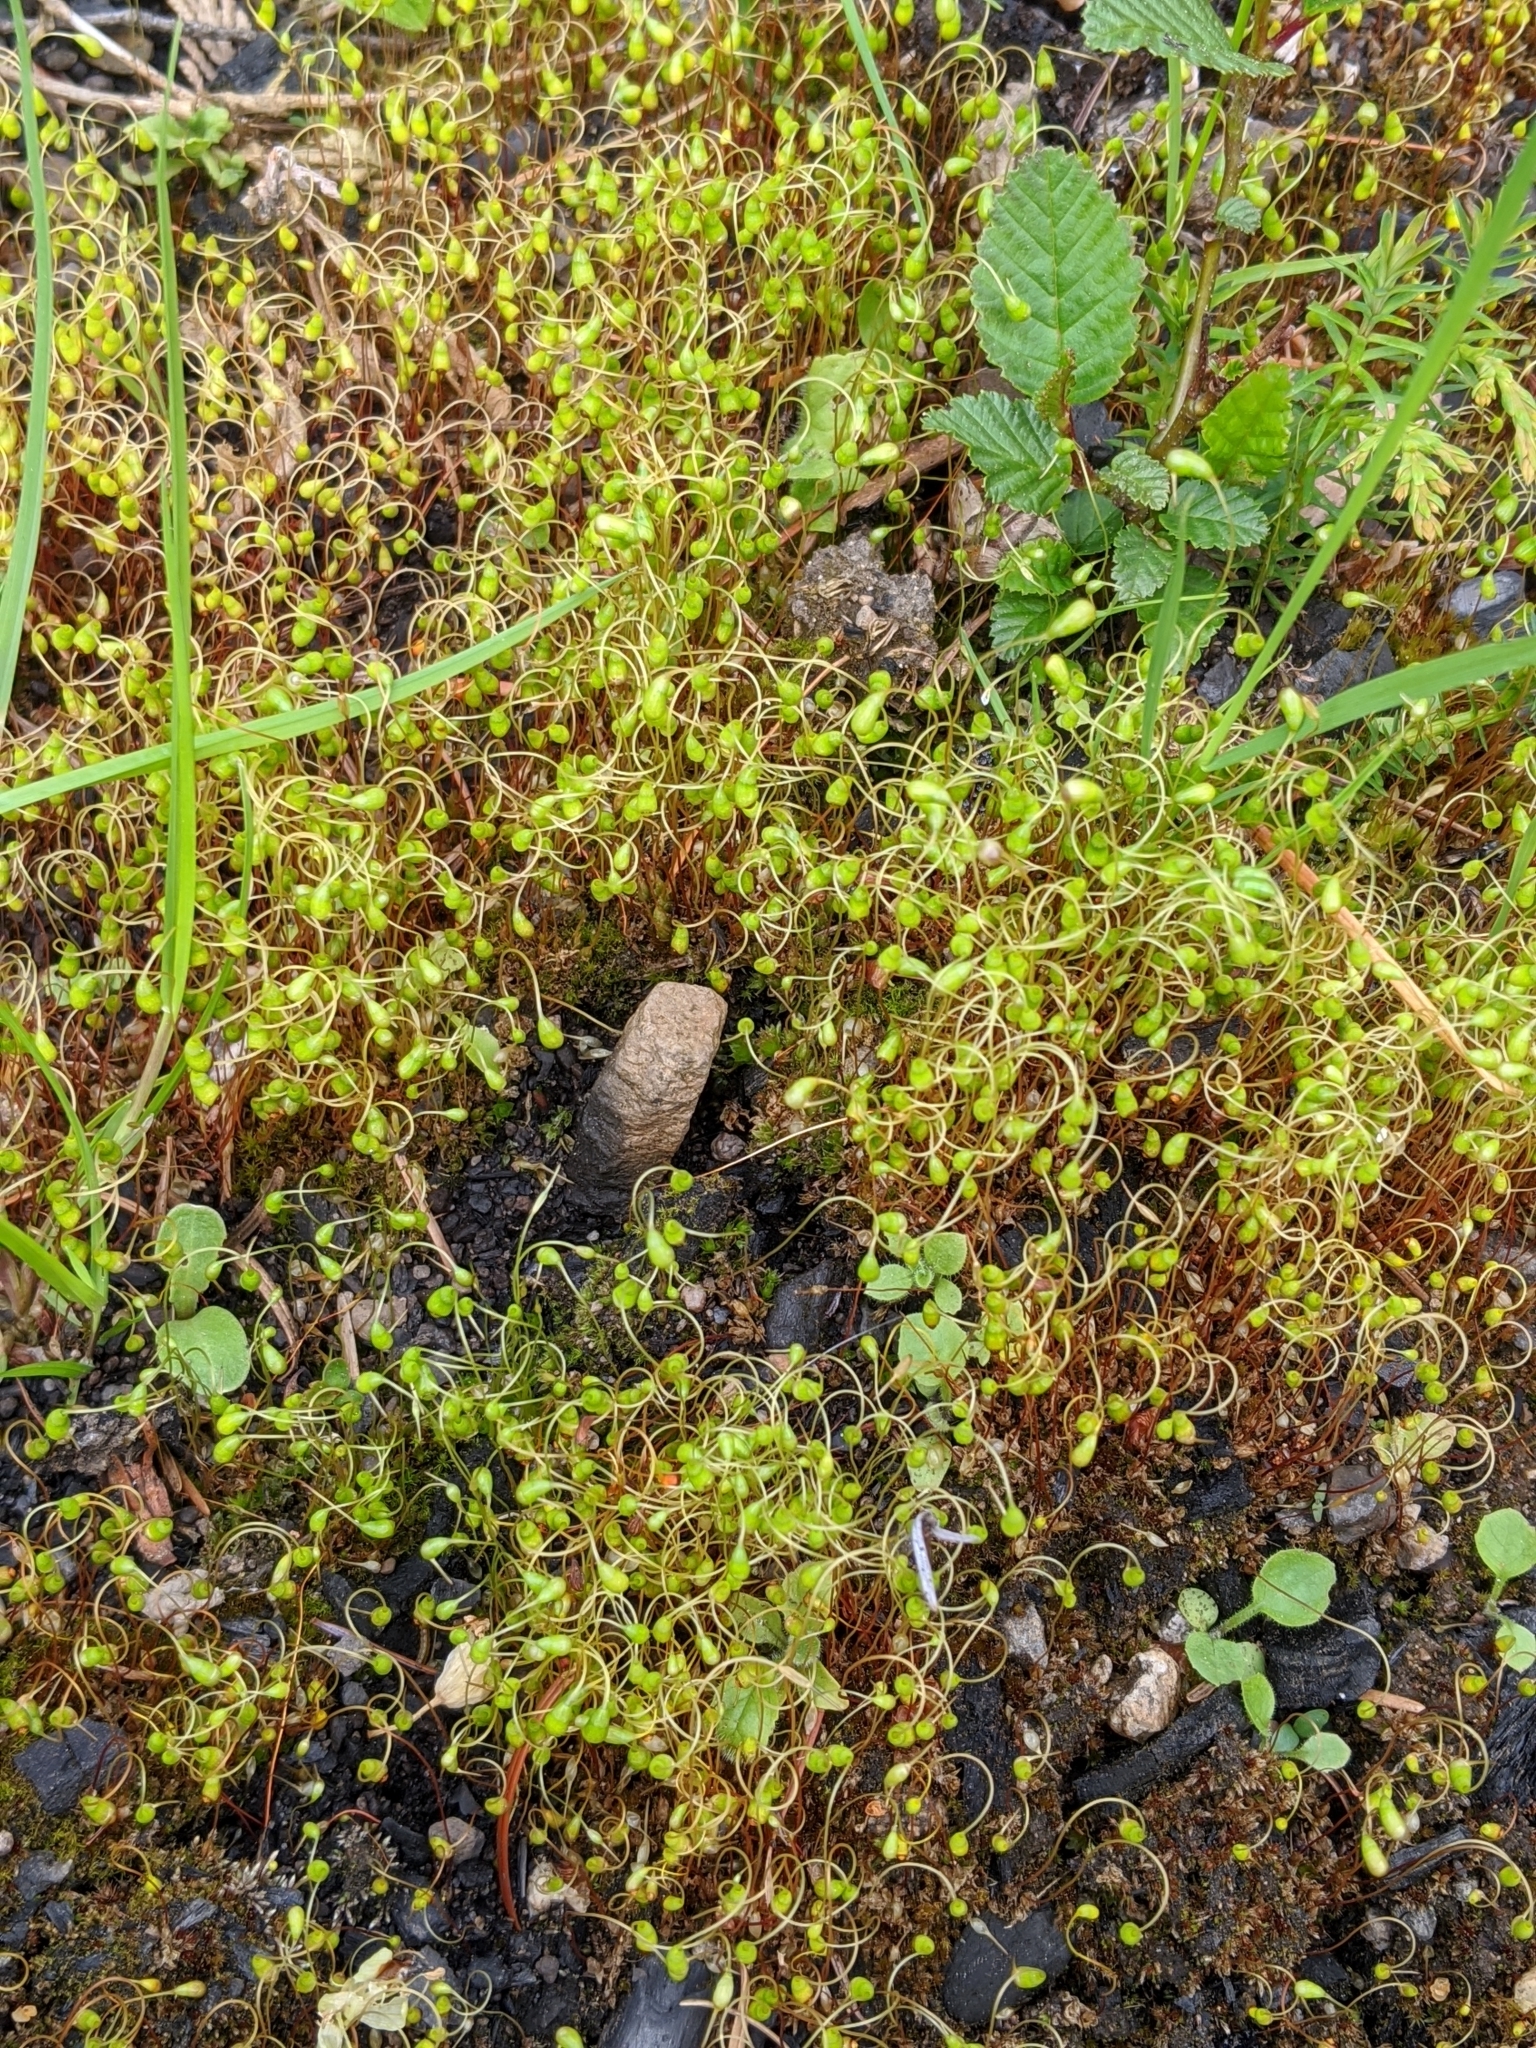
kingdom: Plantae
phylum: Bryophyta
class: Bryopsida
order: Funariales
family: Funariaceae
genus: Funaria
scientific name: Funaria hygrometrica
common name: Common cord moss
